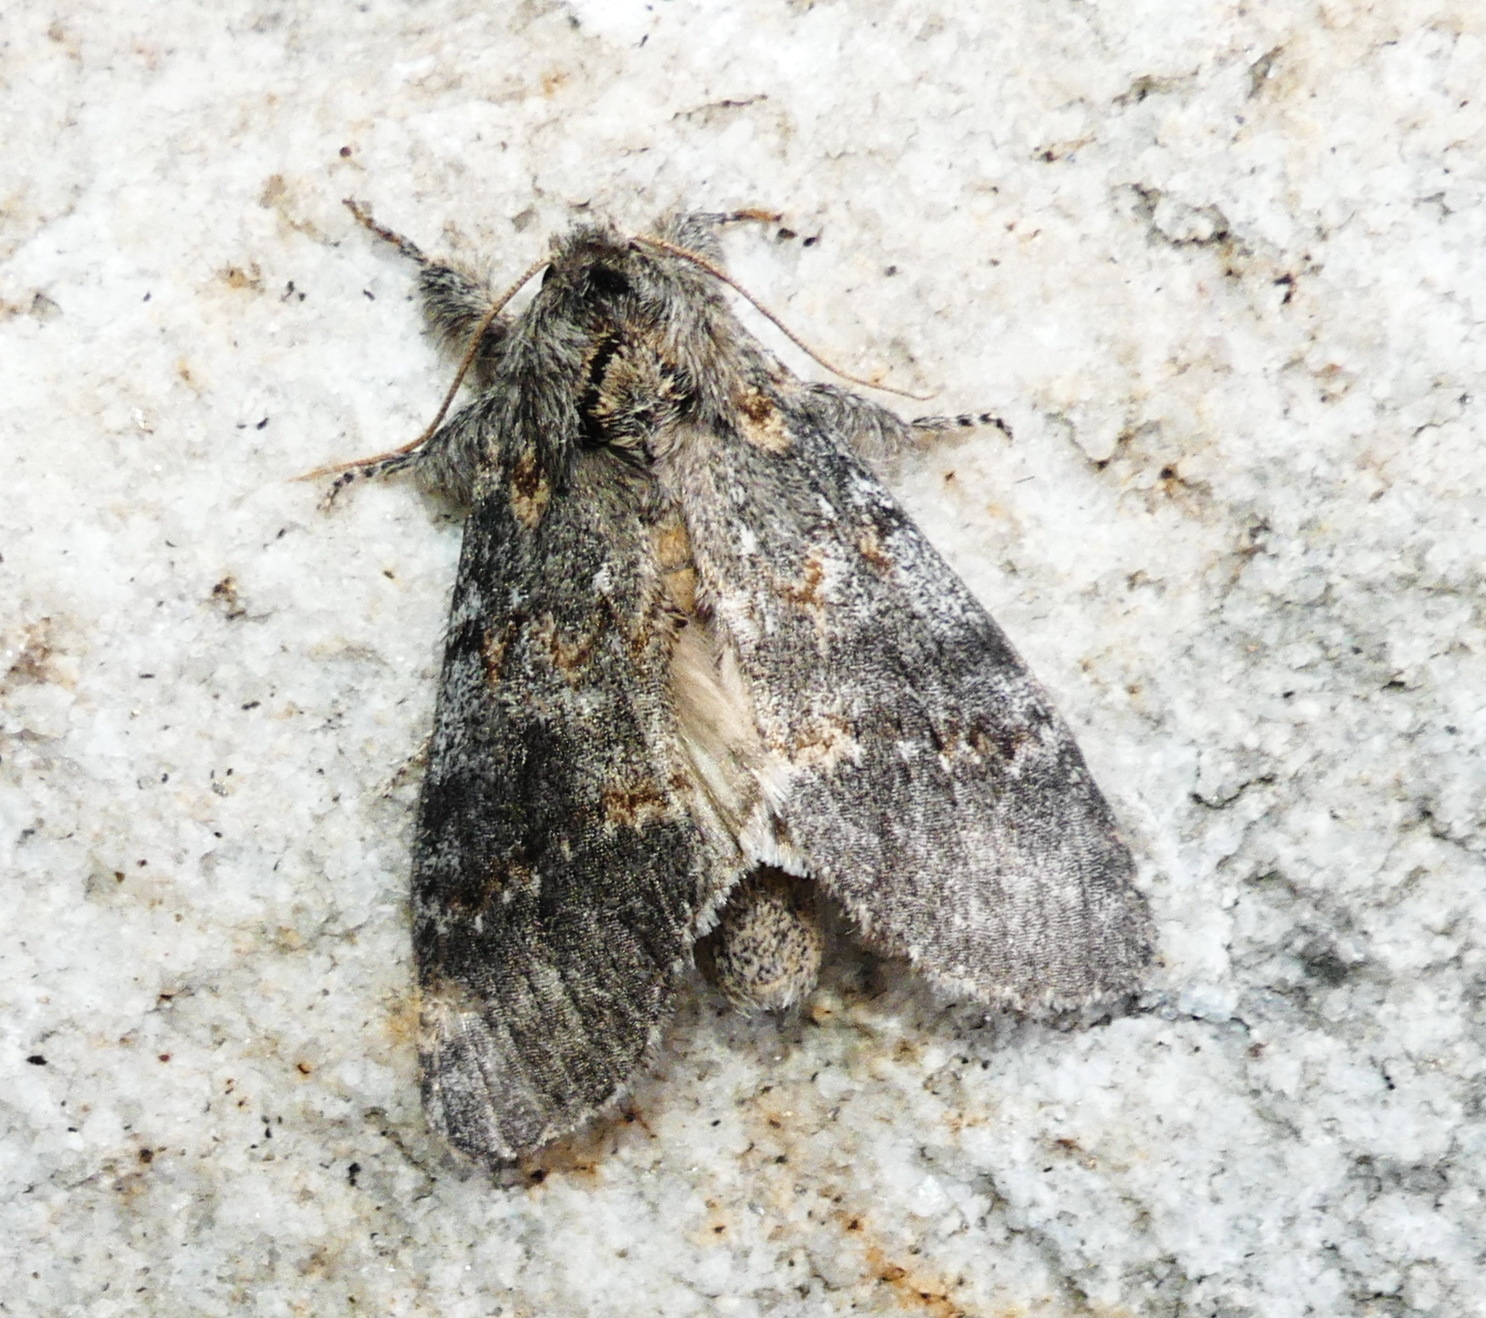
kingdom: Animalia
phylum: Arthropoda
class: Insecta
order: Lepidoptera
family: Notodontidae
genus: Peridea
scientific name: Peridea angulosa
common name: Angulose prominent
